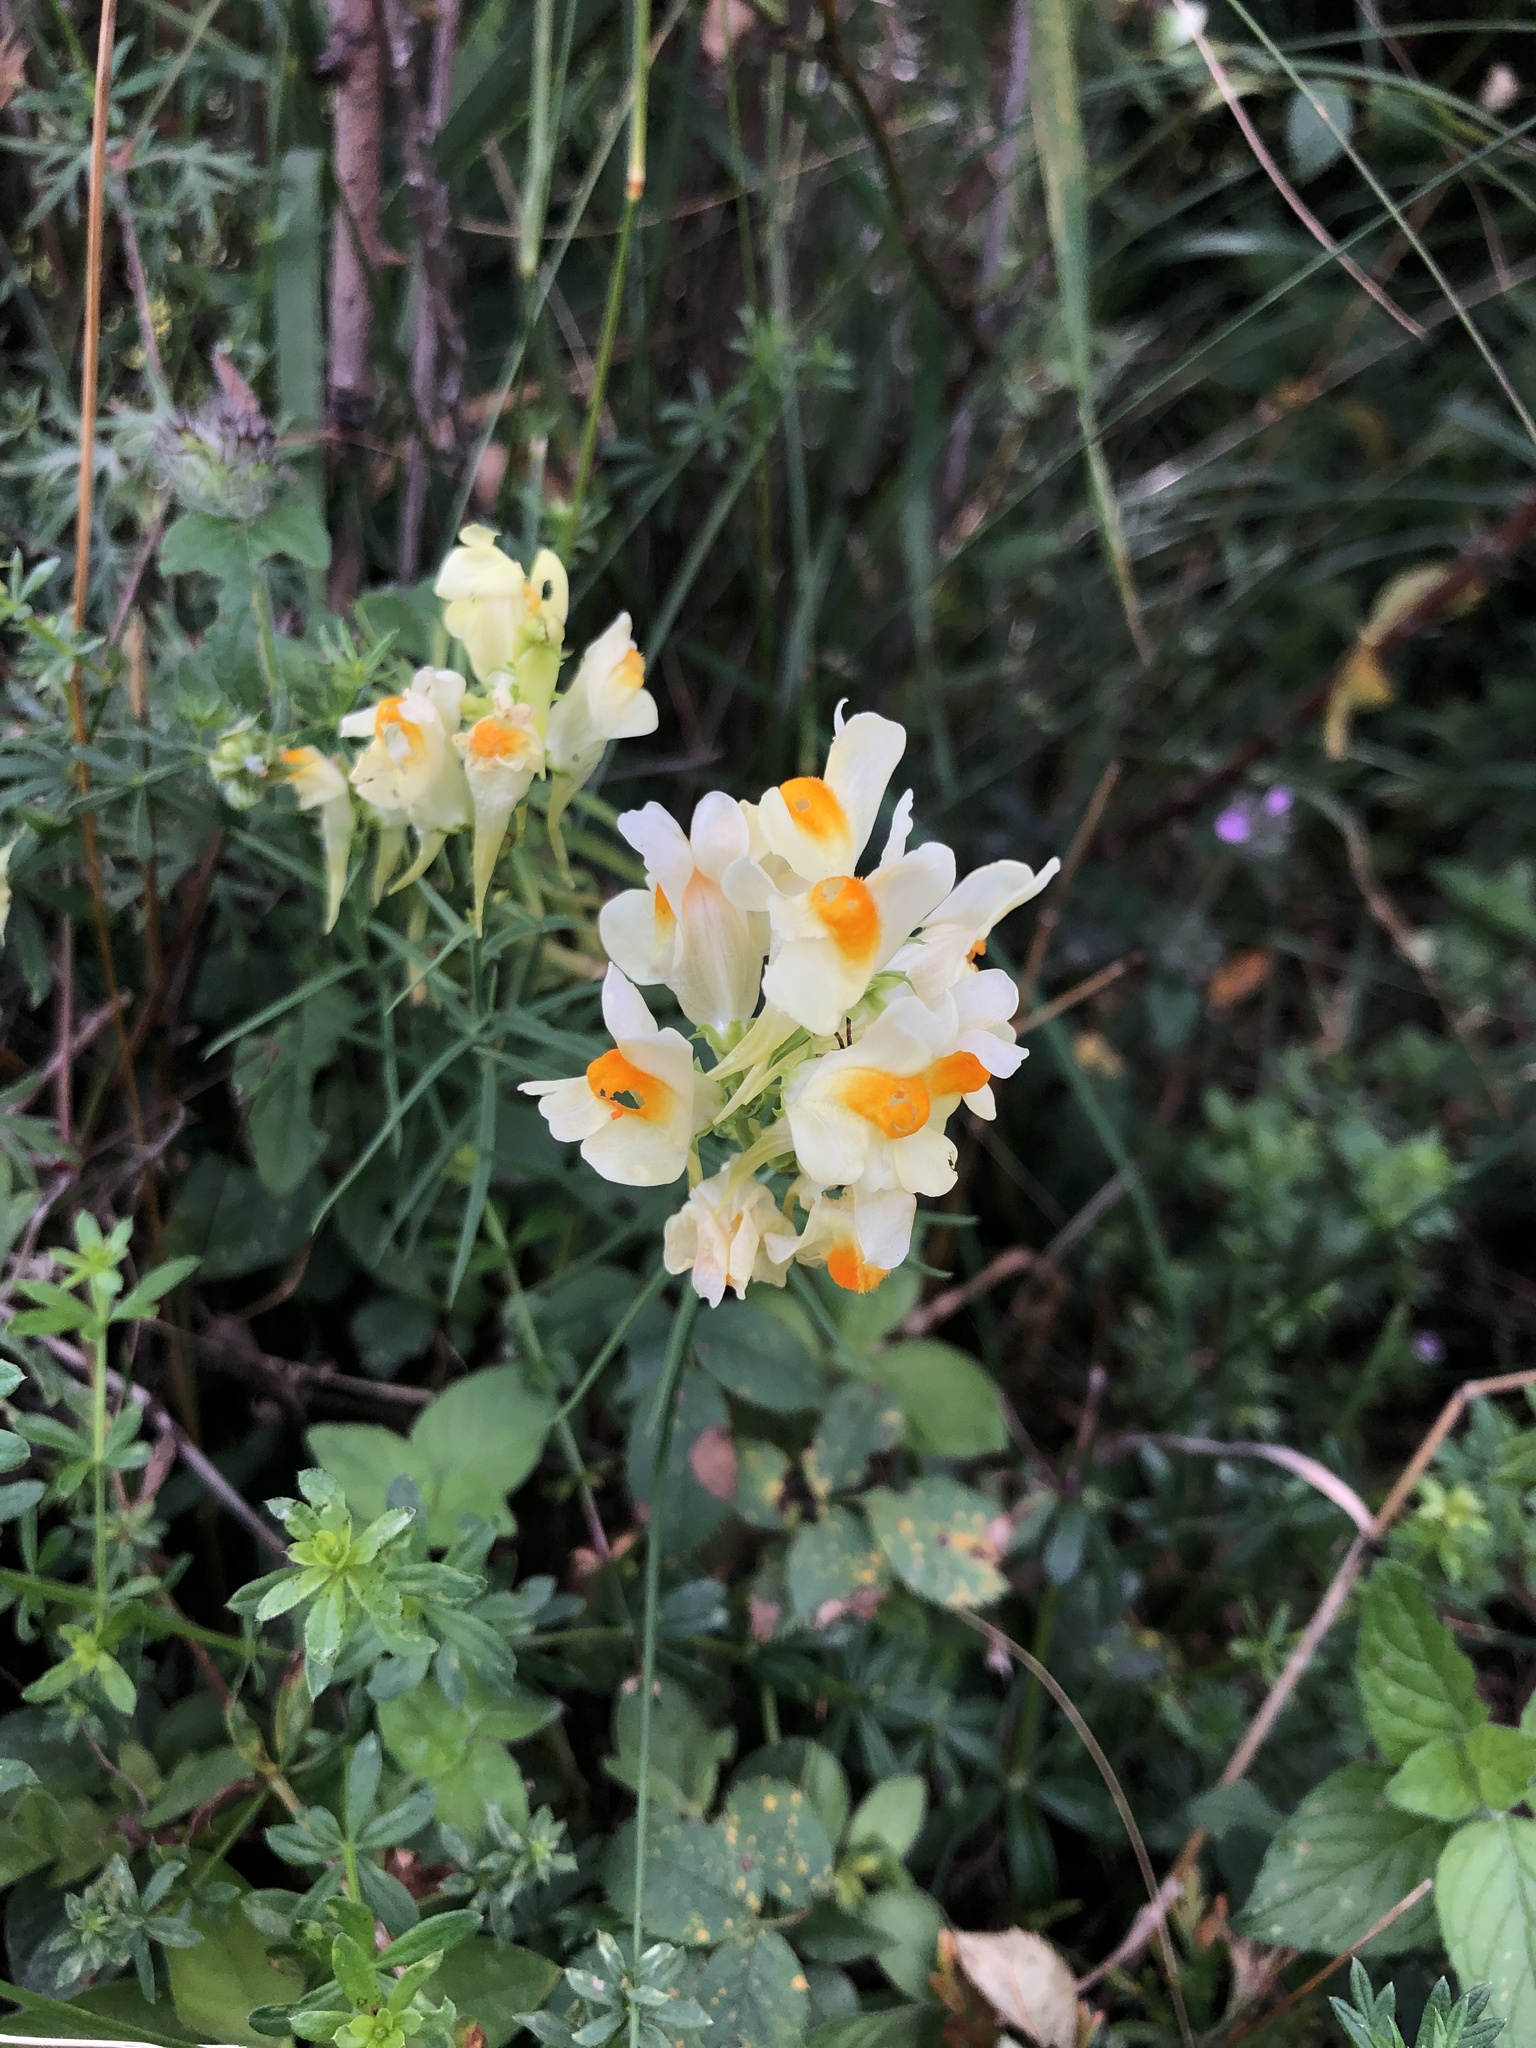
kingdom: Plantae
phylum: Tracheophyta
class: Magnoliopsida
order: Lamiales
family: Plantaginaceae
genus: Linaria
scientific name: Linaria vulgaris
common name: Butter and eggs
